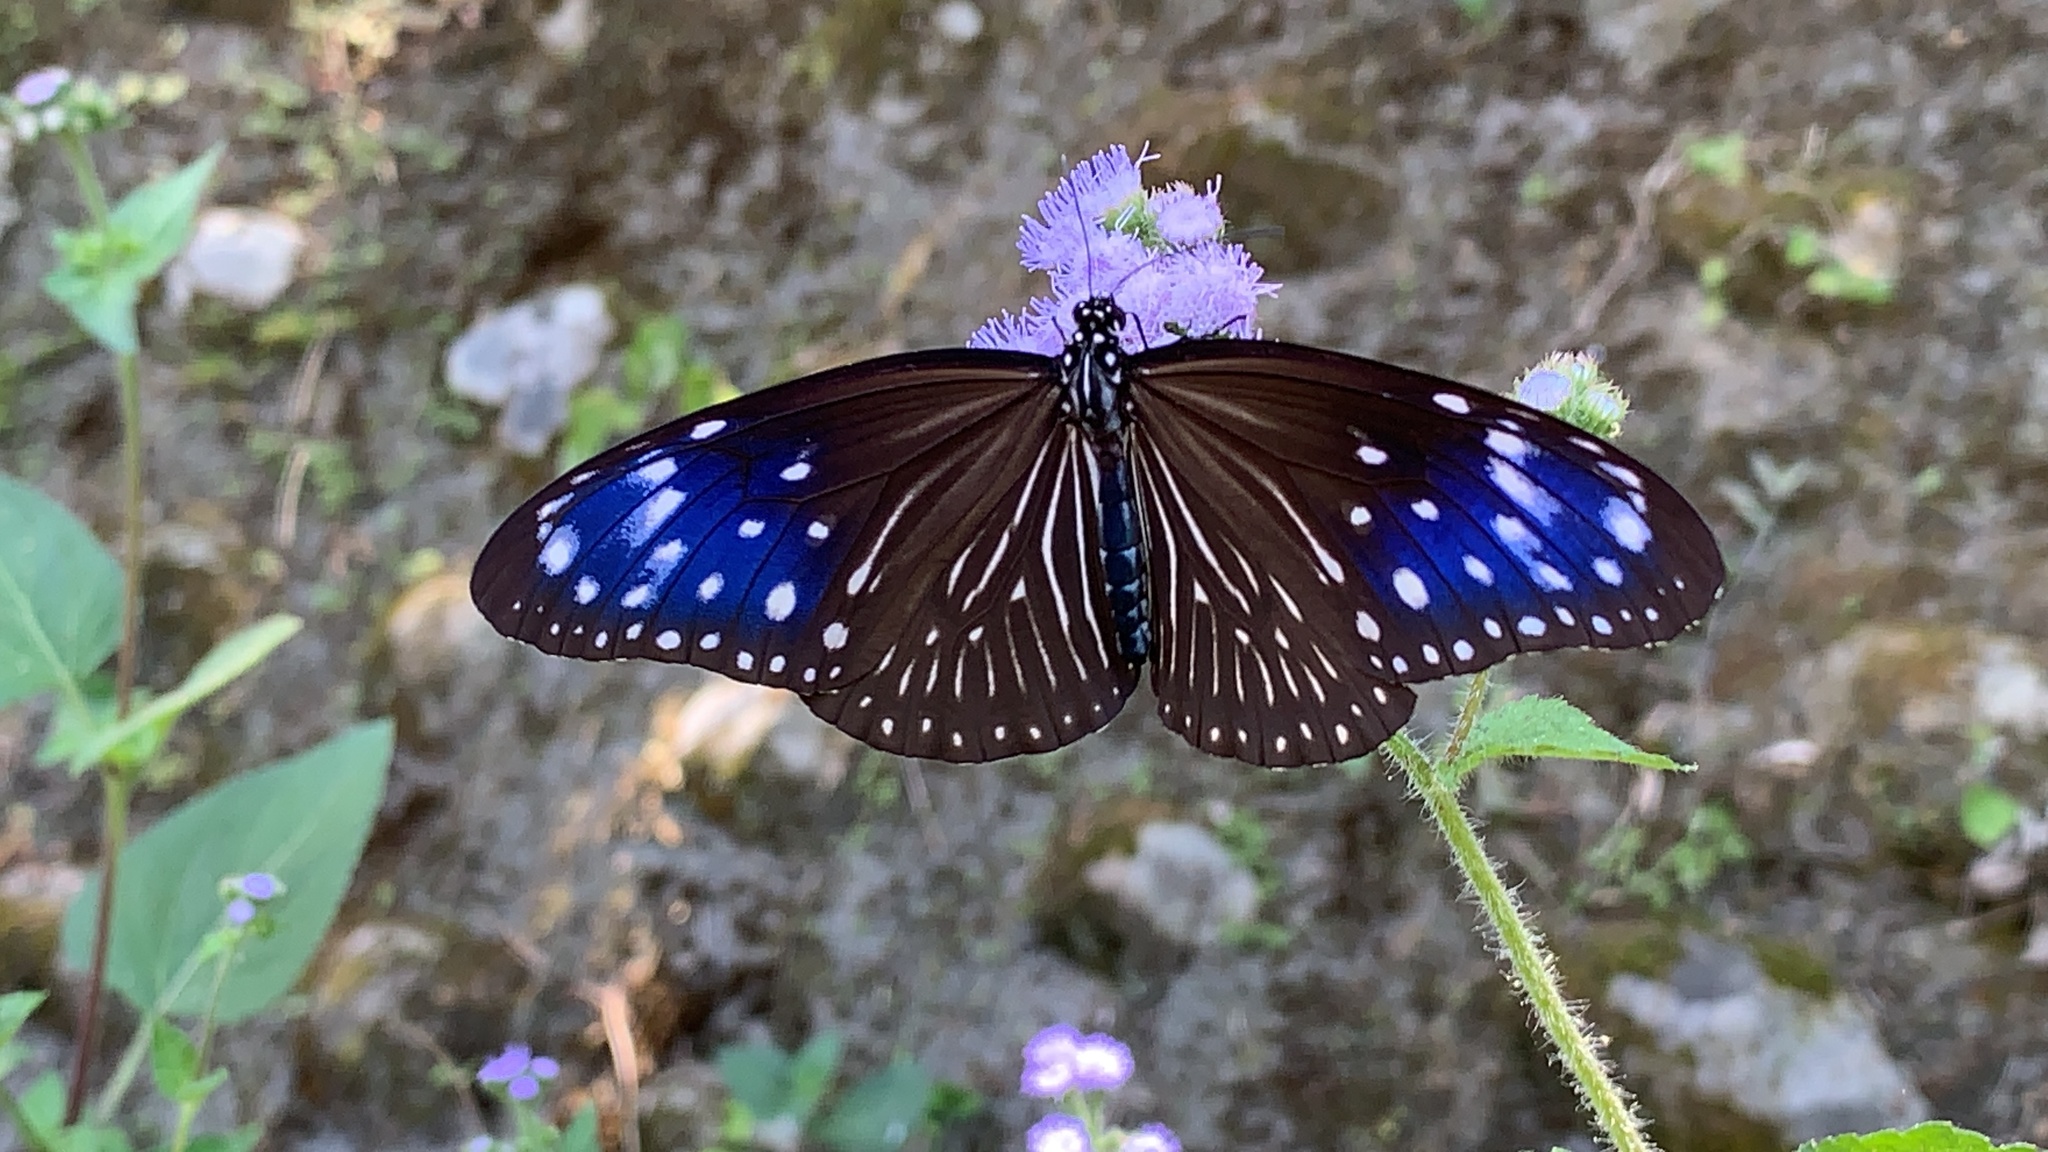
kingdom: Animalia
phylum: Arthropoda
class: Insecta
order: Lepidoptera
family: Nymphalidae
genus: Euploea
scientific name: Euploea mulciber
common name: Striped blue crow butterfly
